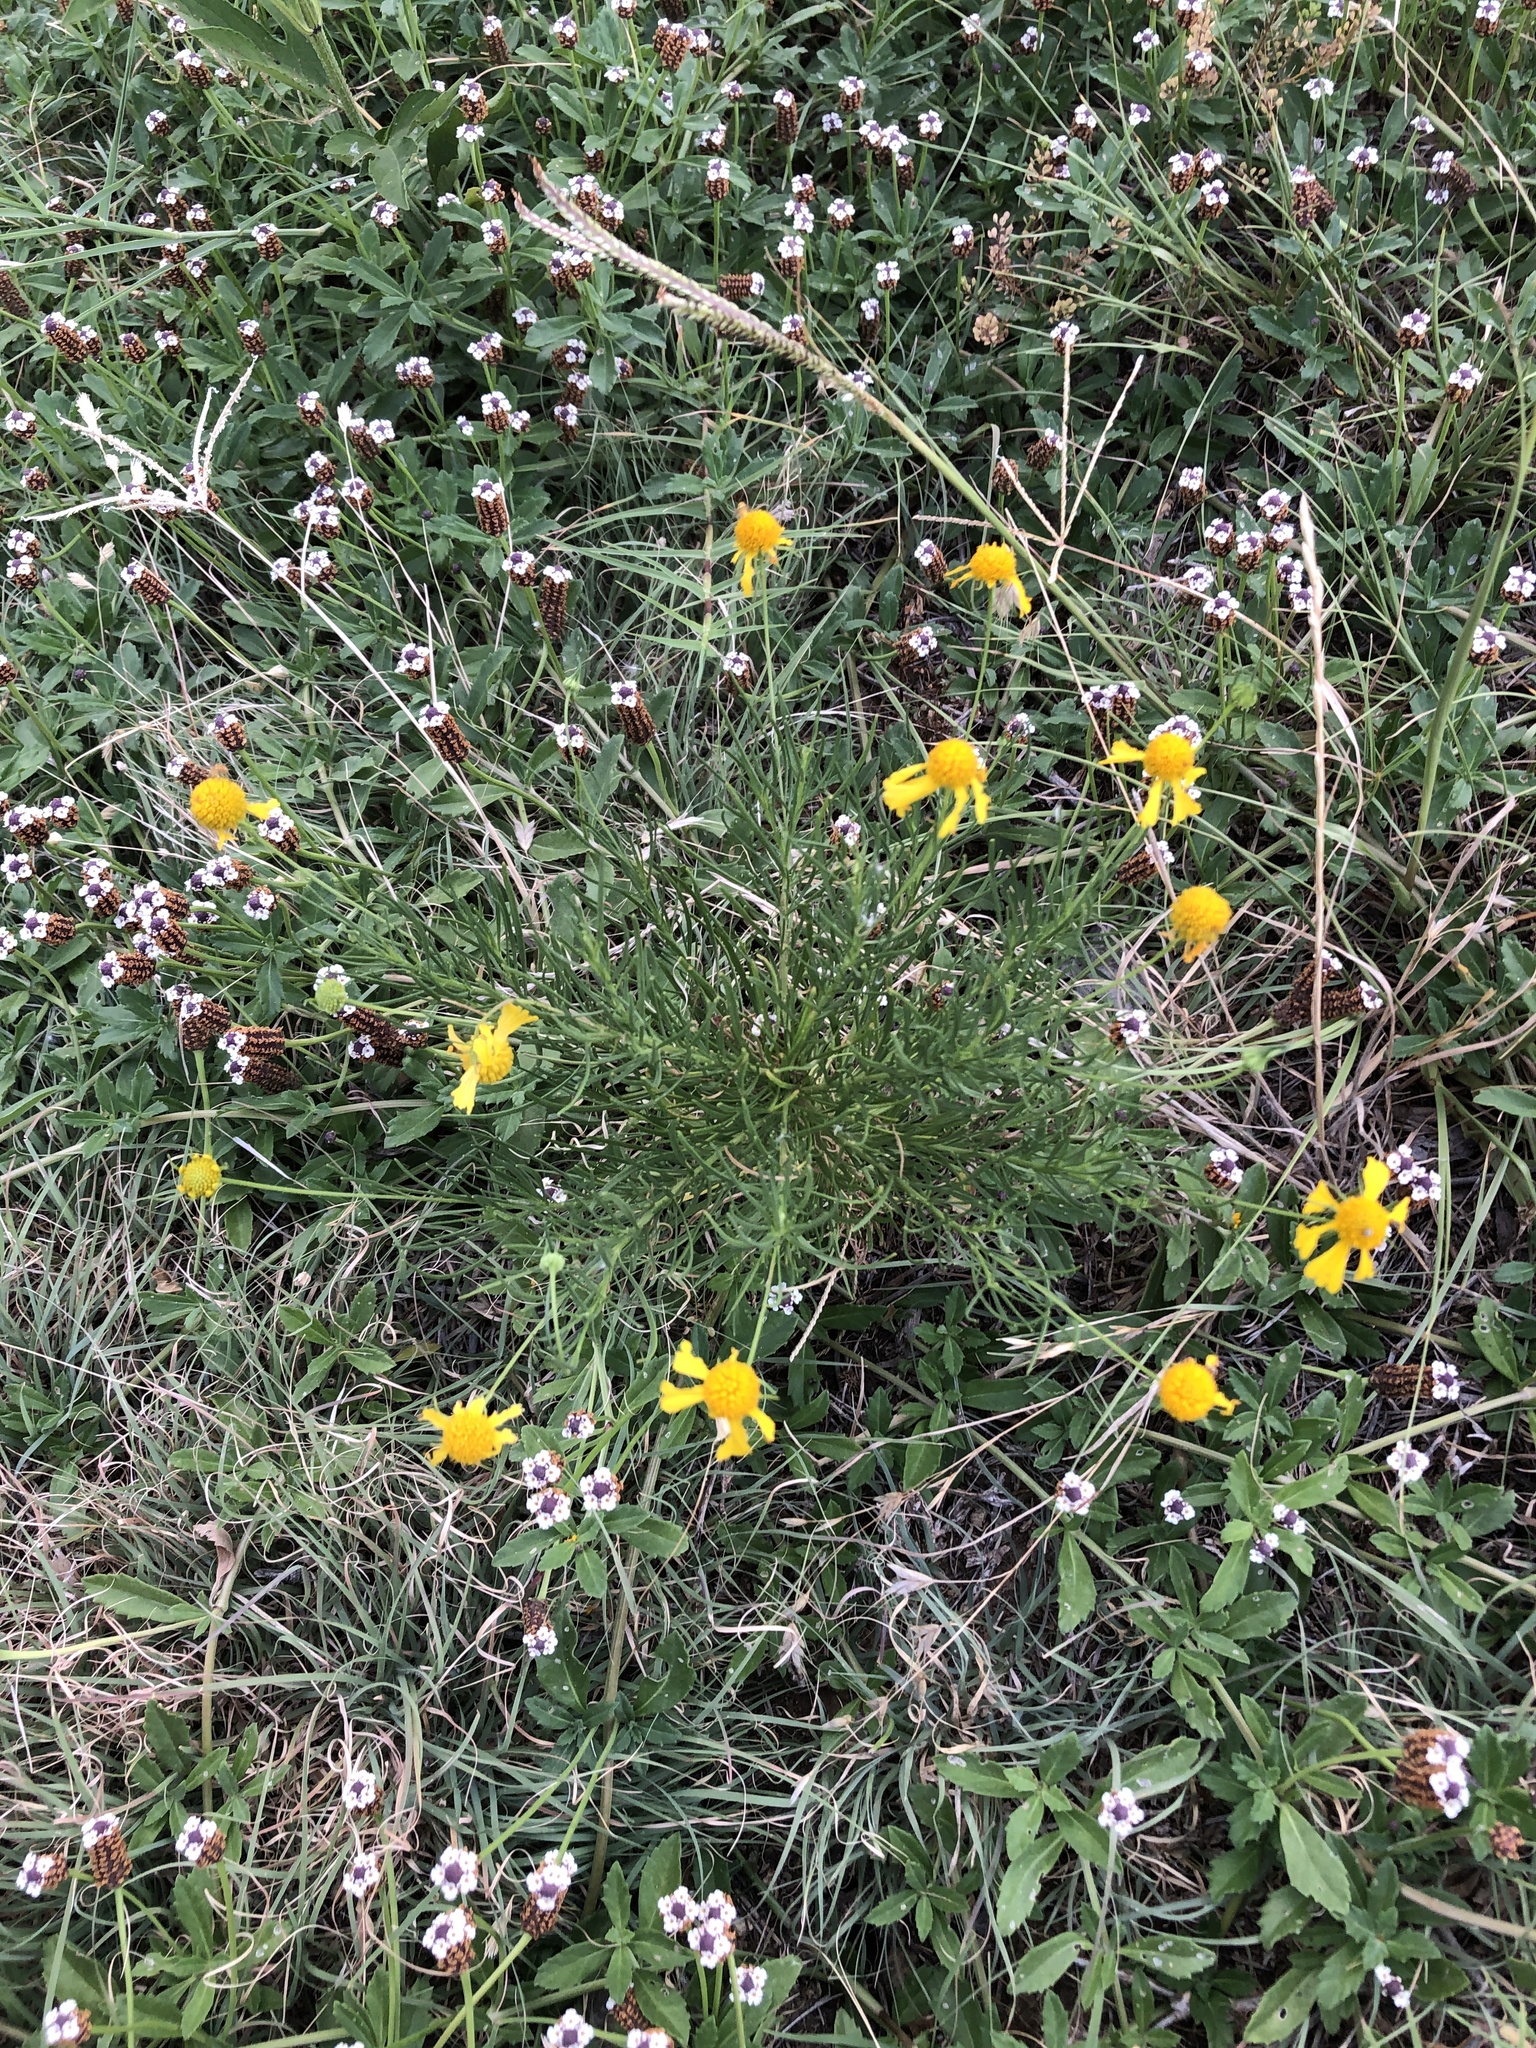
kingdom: Plantae
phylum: Tracheophyta
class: Magnoliopsida
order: Asterales
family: Asteraceae
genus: Helenium
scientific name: Helenium amarum
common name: Bitter sneezeweed
